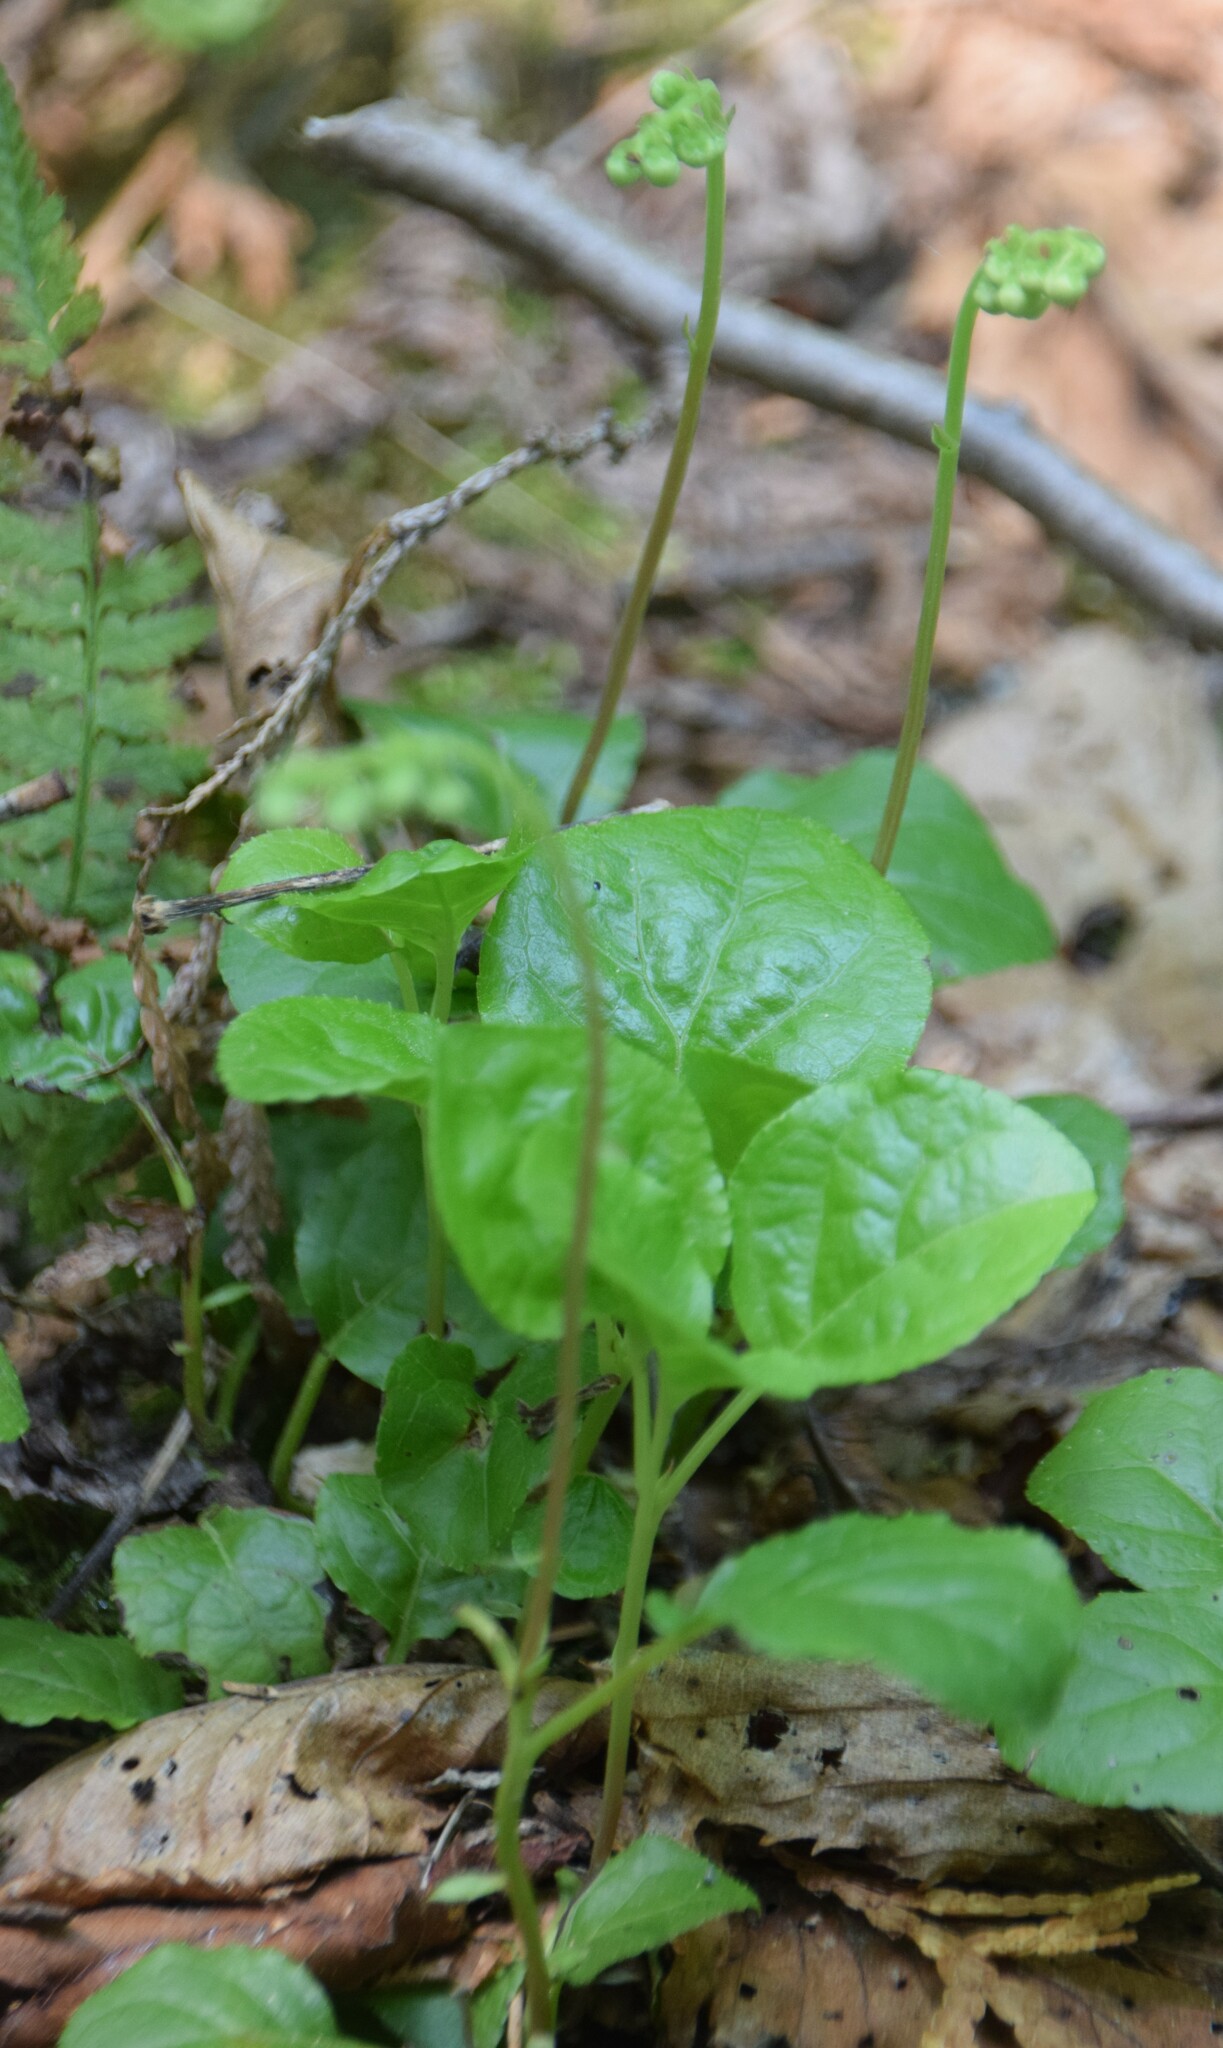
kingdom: Plantae
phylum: Tracheophyta
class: Magnoliopsida
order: Ericales
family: Ericaceae
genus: Orthilia
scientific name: Orthilia secunda
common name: One-sided orthilia
